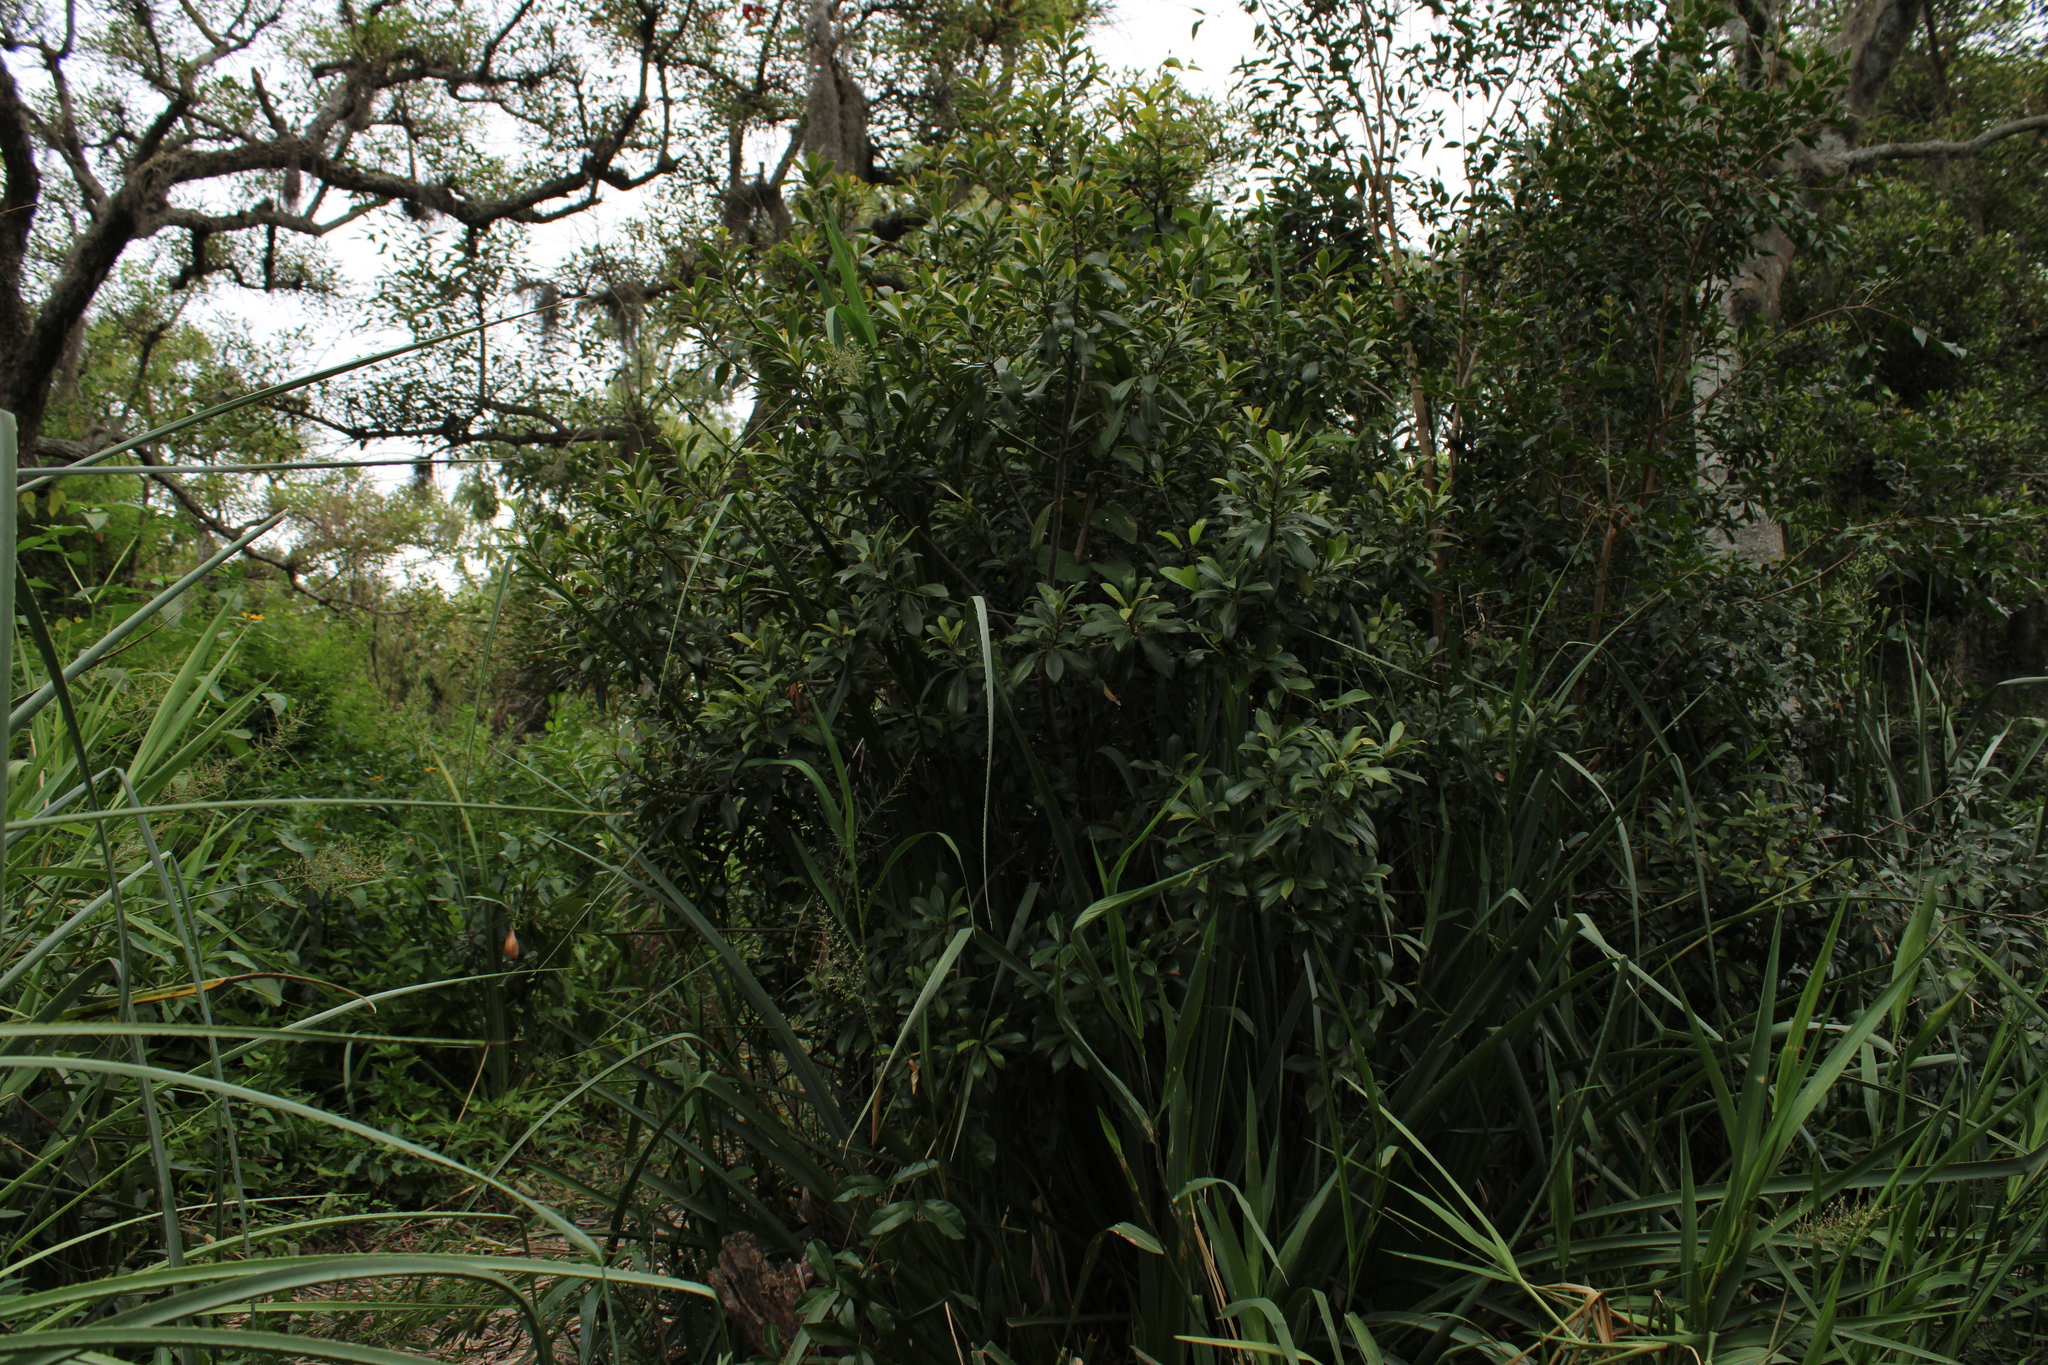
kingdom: Plantae
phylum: Tracheophyta
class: Magnoliopsida
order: Ericales
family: Primulaceae
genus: Myrsine
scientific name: Myrsine lorentziana
